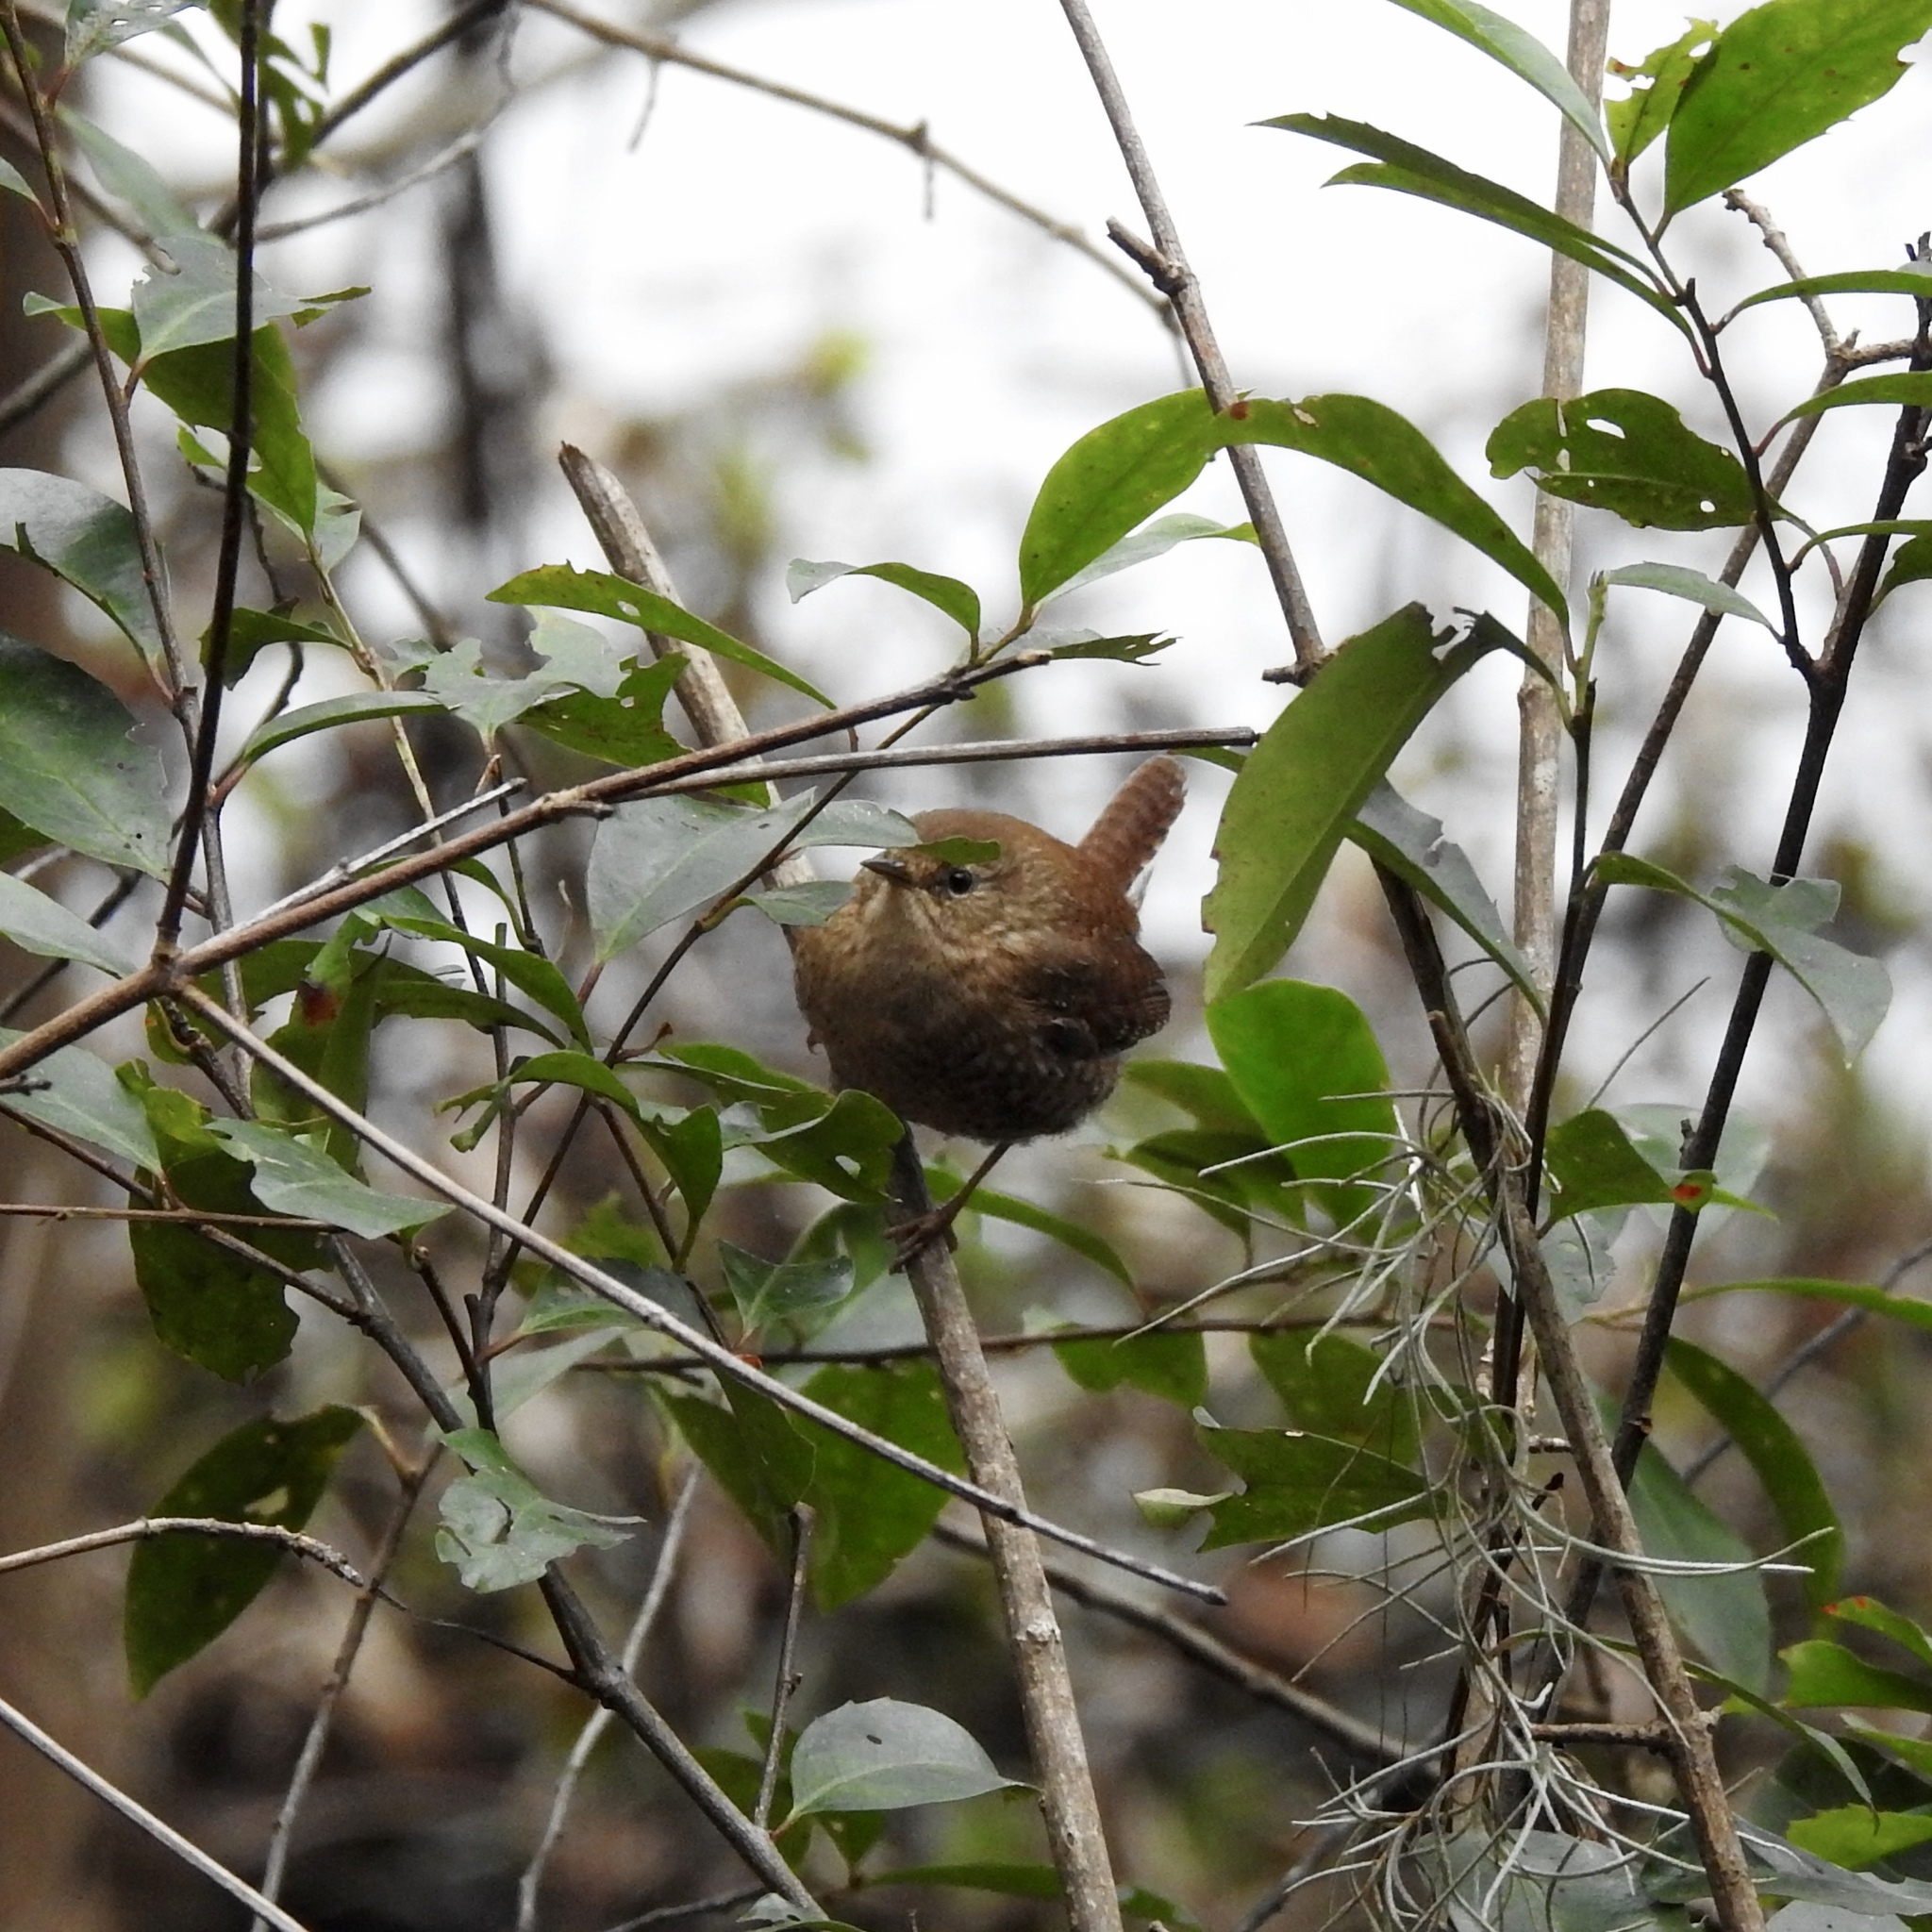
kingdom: Animalia
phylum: Chordata
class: Aves
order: Passeriformes
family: Troglodytidae
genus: Troglodytes
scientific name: Troglodytes hiemalis
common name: Winter wren
